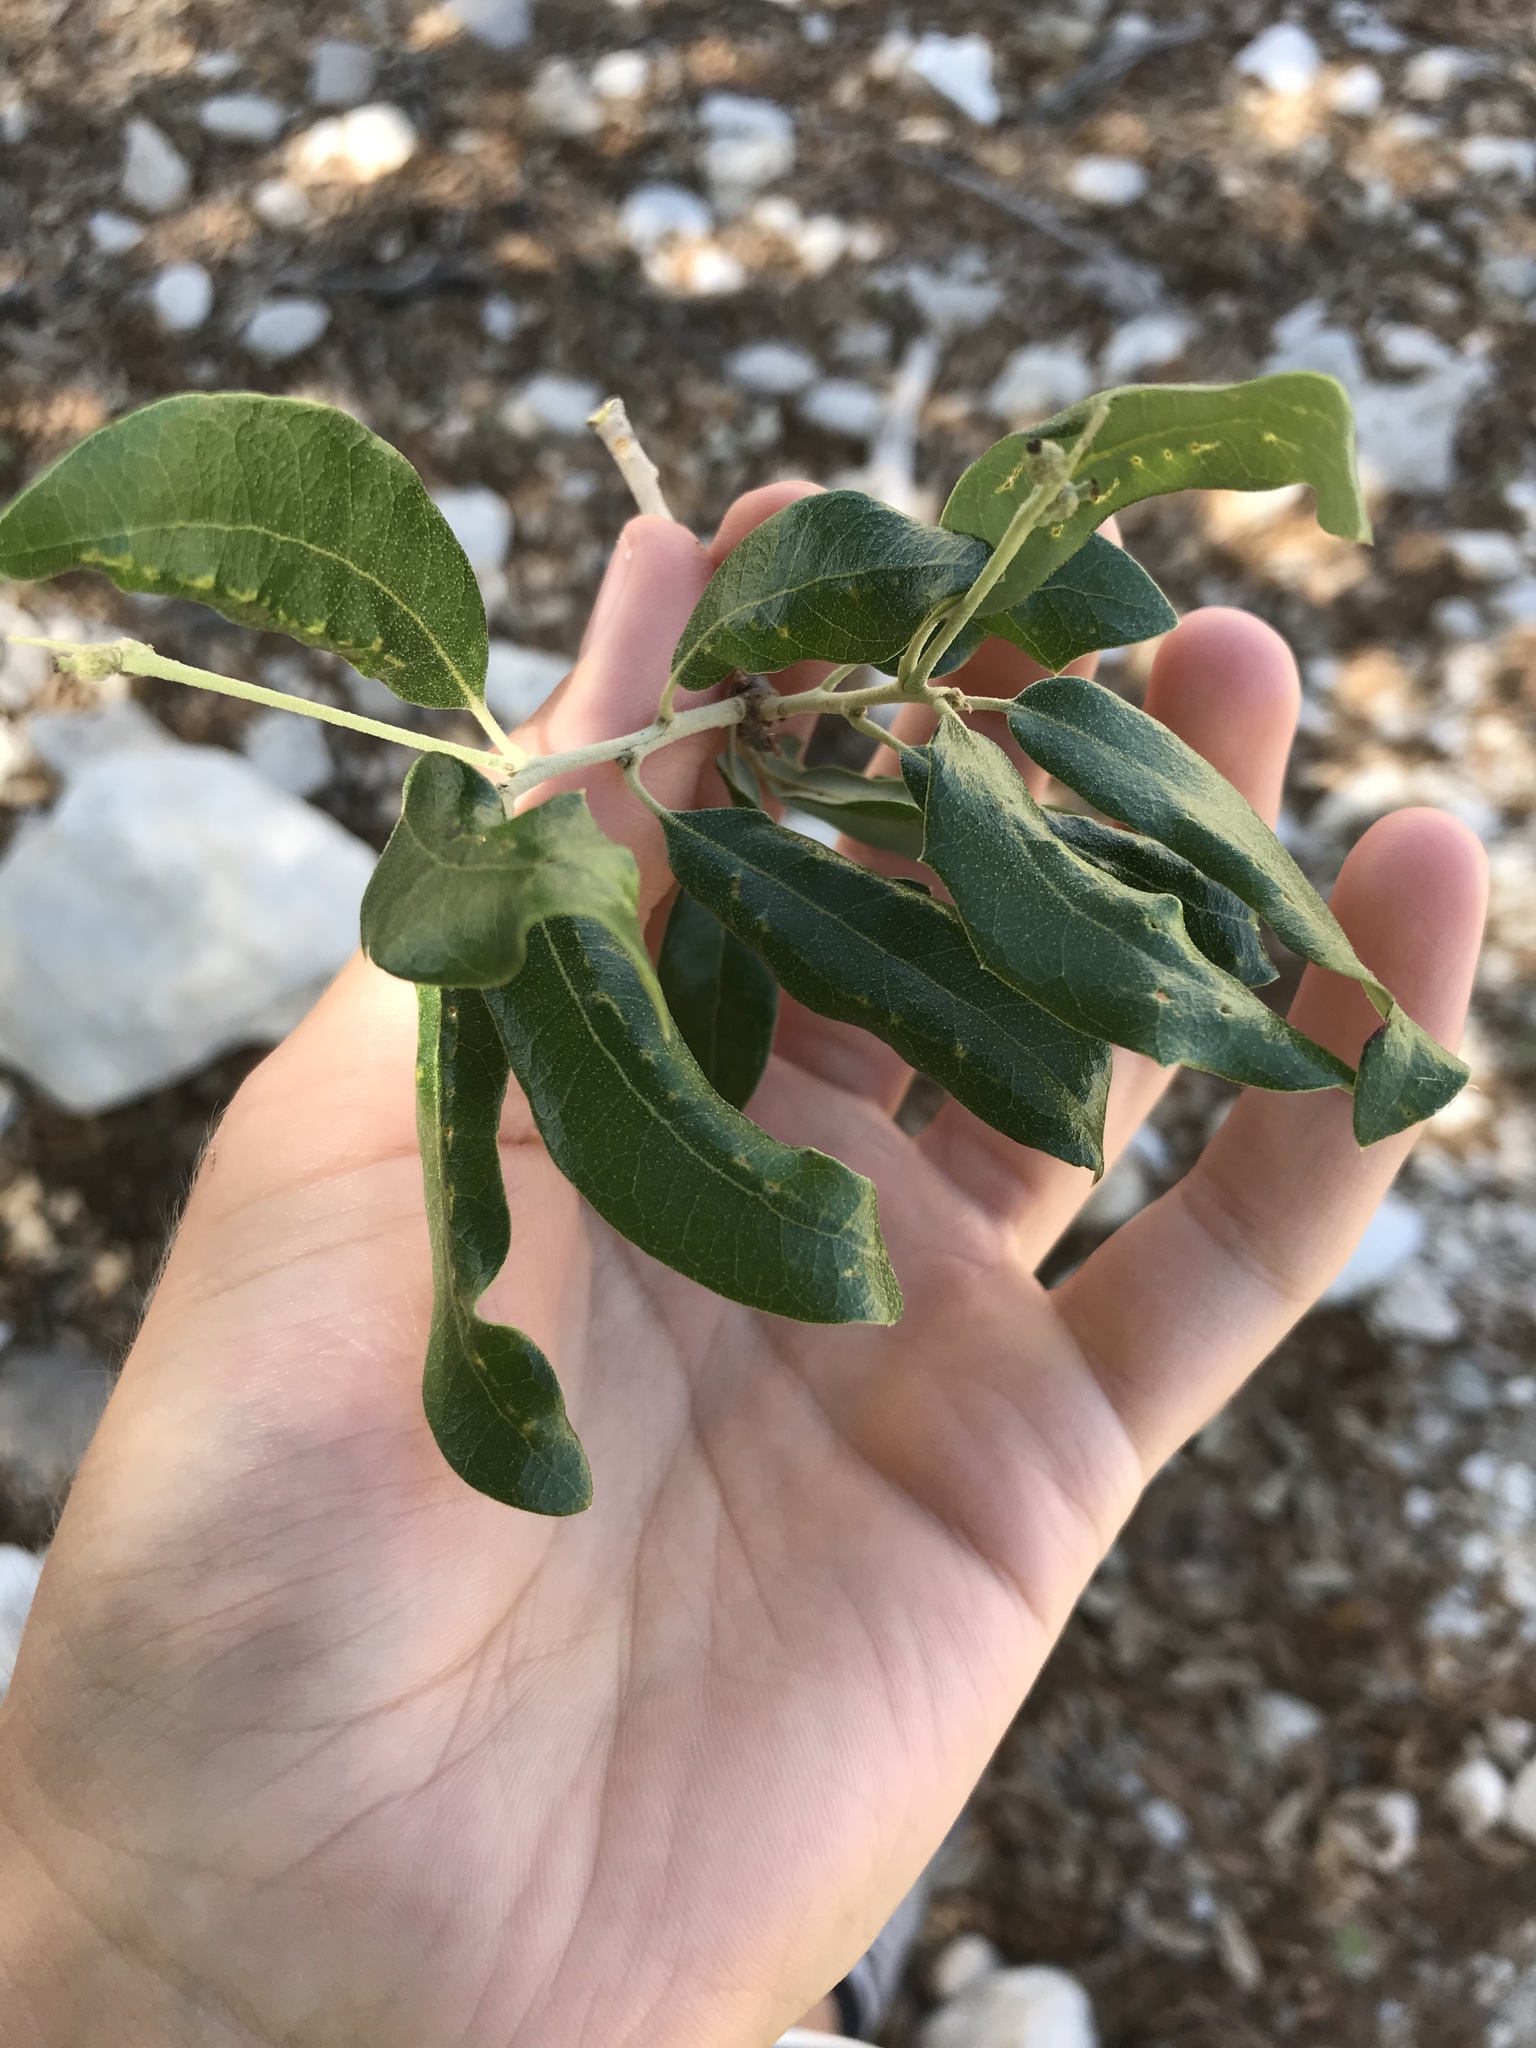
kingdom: Plantae
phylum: Tracheophyta
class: Magnoliopsida
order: Fagales
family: Fagaceae
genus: Quercus
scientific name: Quercus fusiformis
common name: Texas live oak
